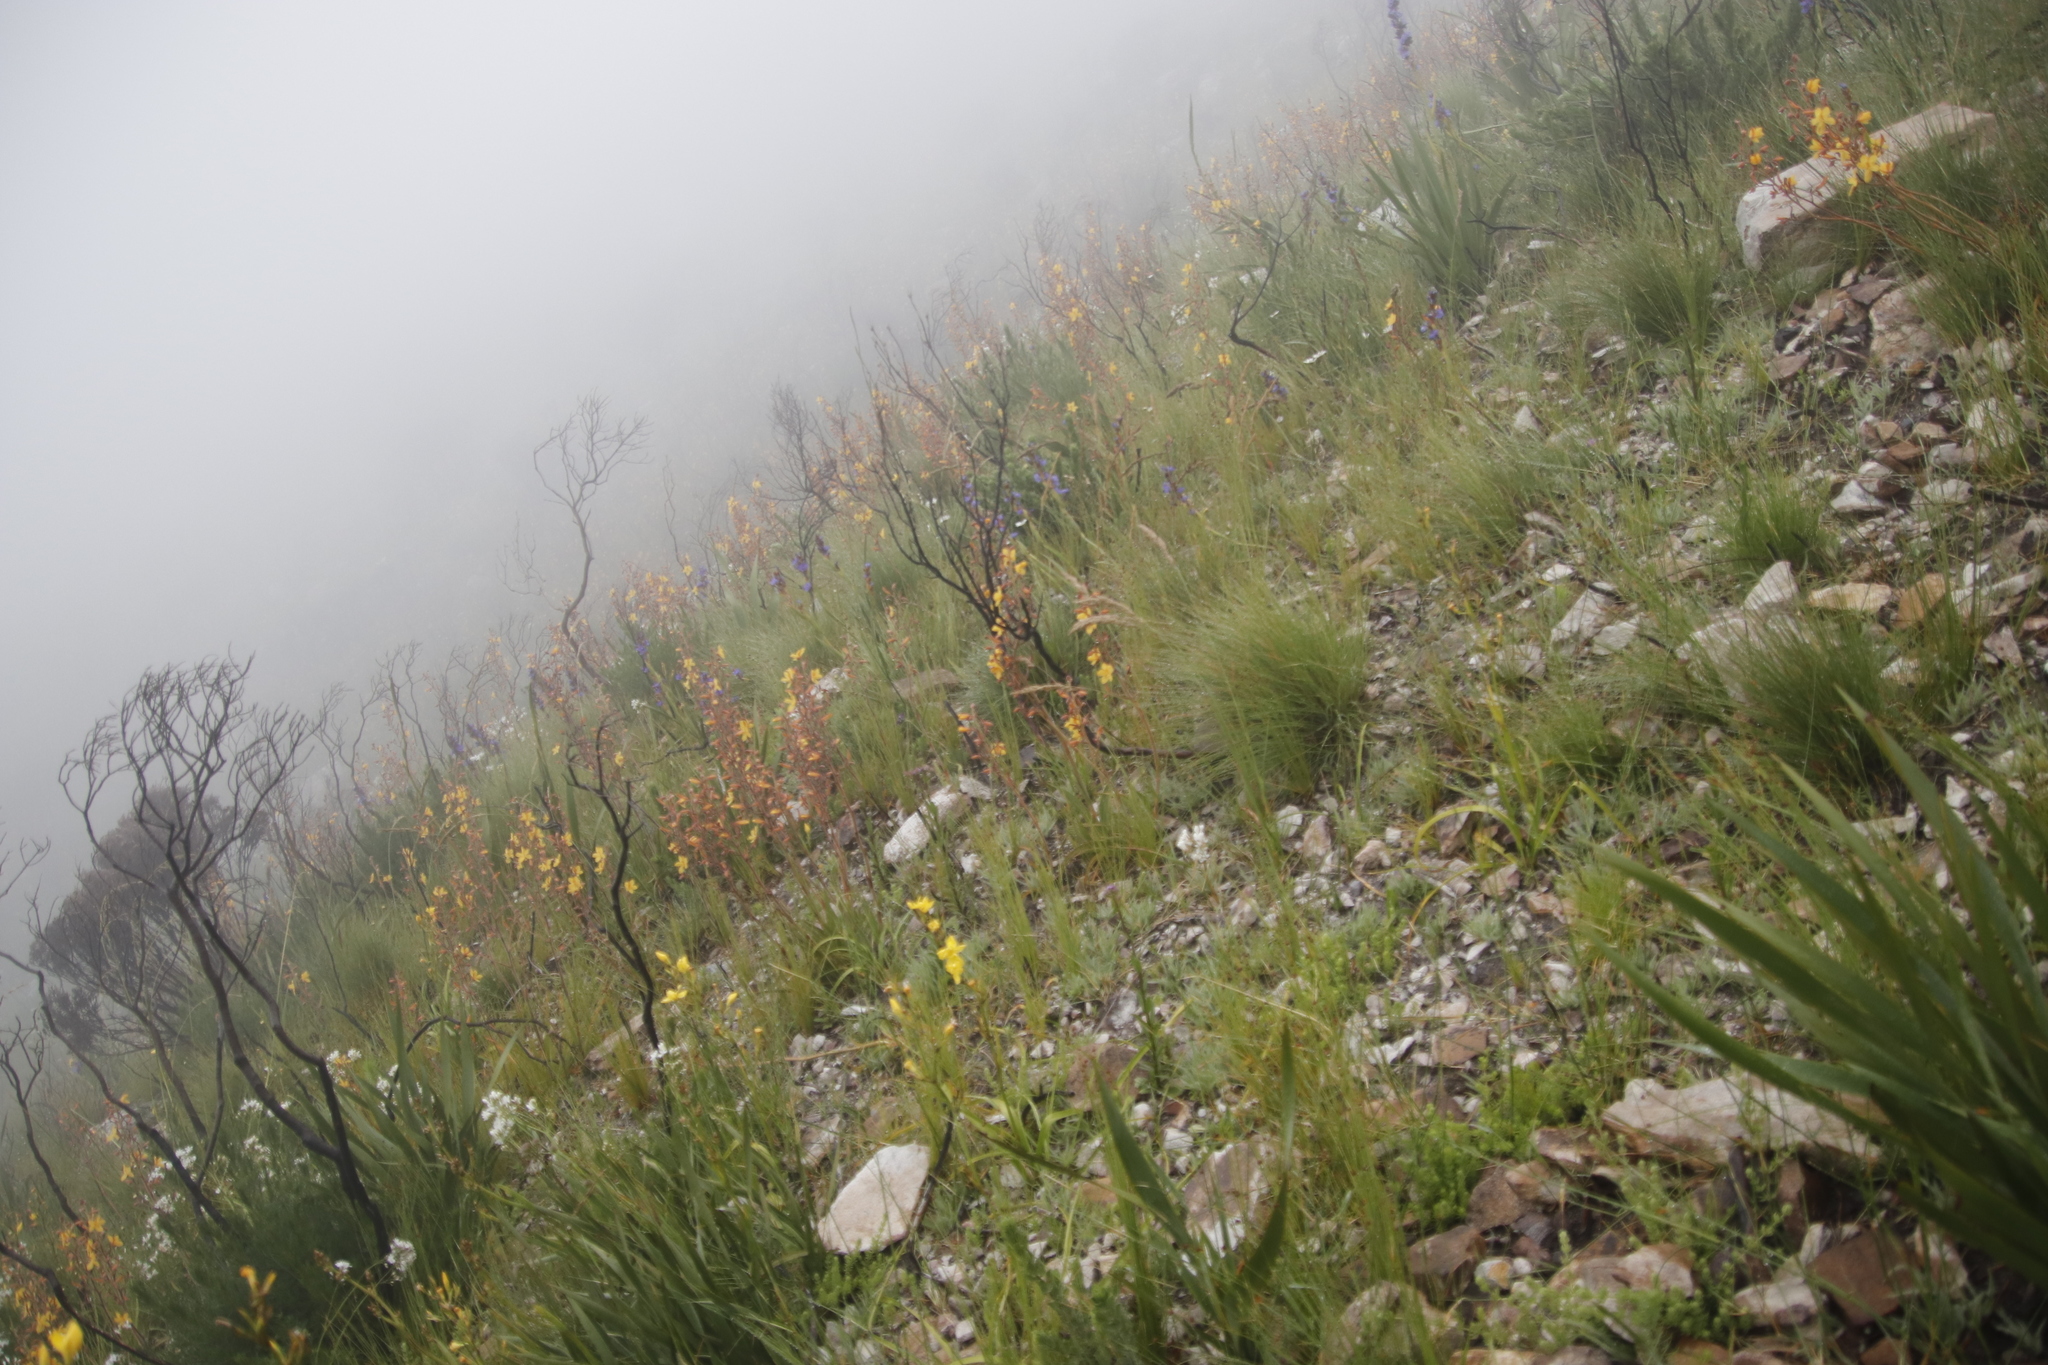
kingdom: Plantae
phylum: Tracheophyta
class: Liliopsida
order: Asparagales
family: Iridaceae
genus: Moraea
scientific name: Moraea ramosissima
